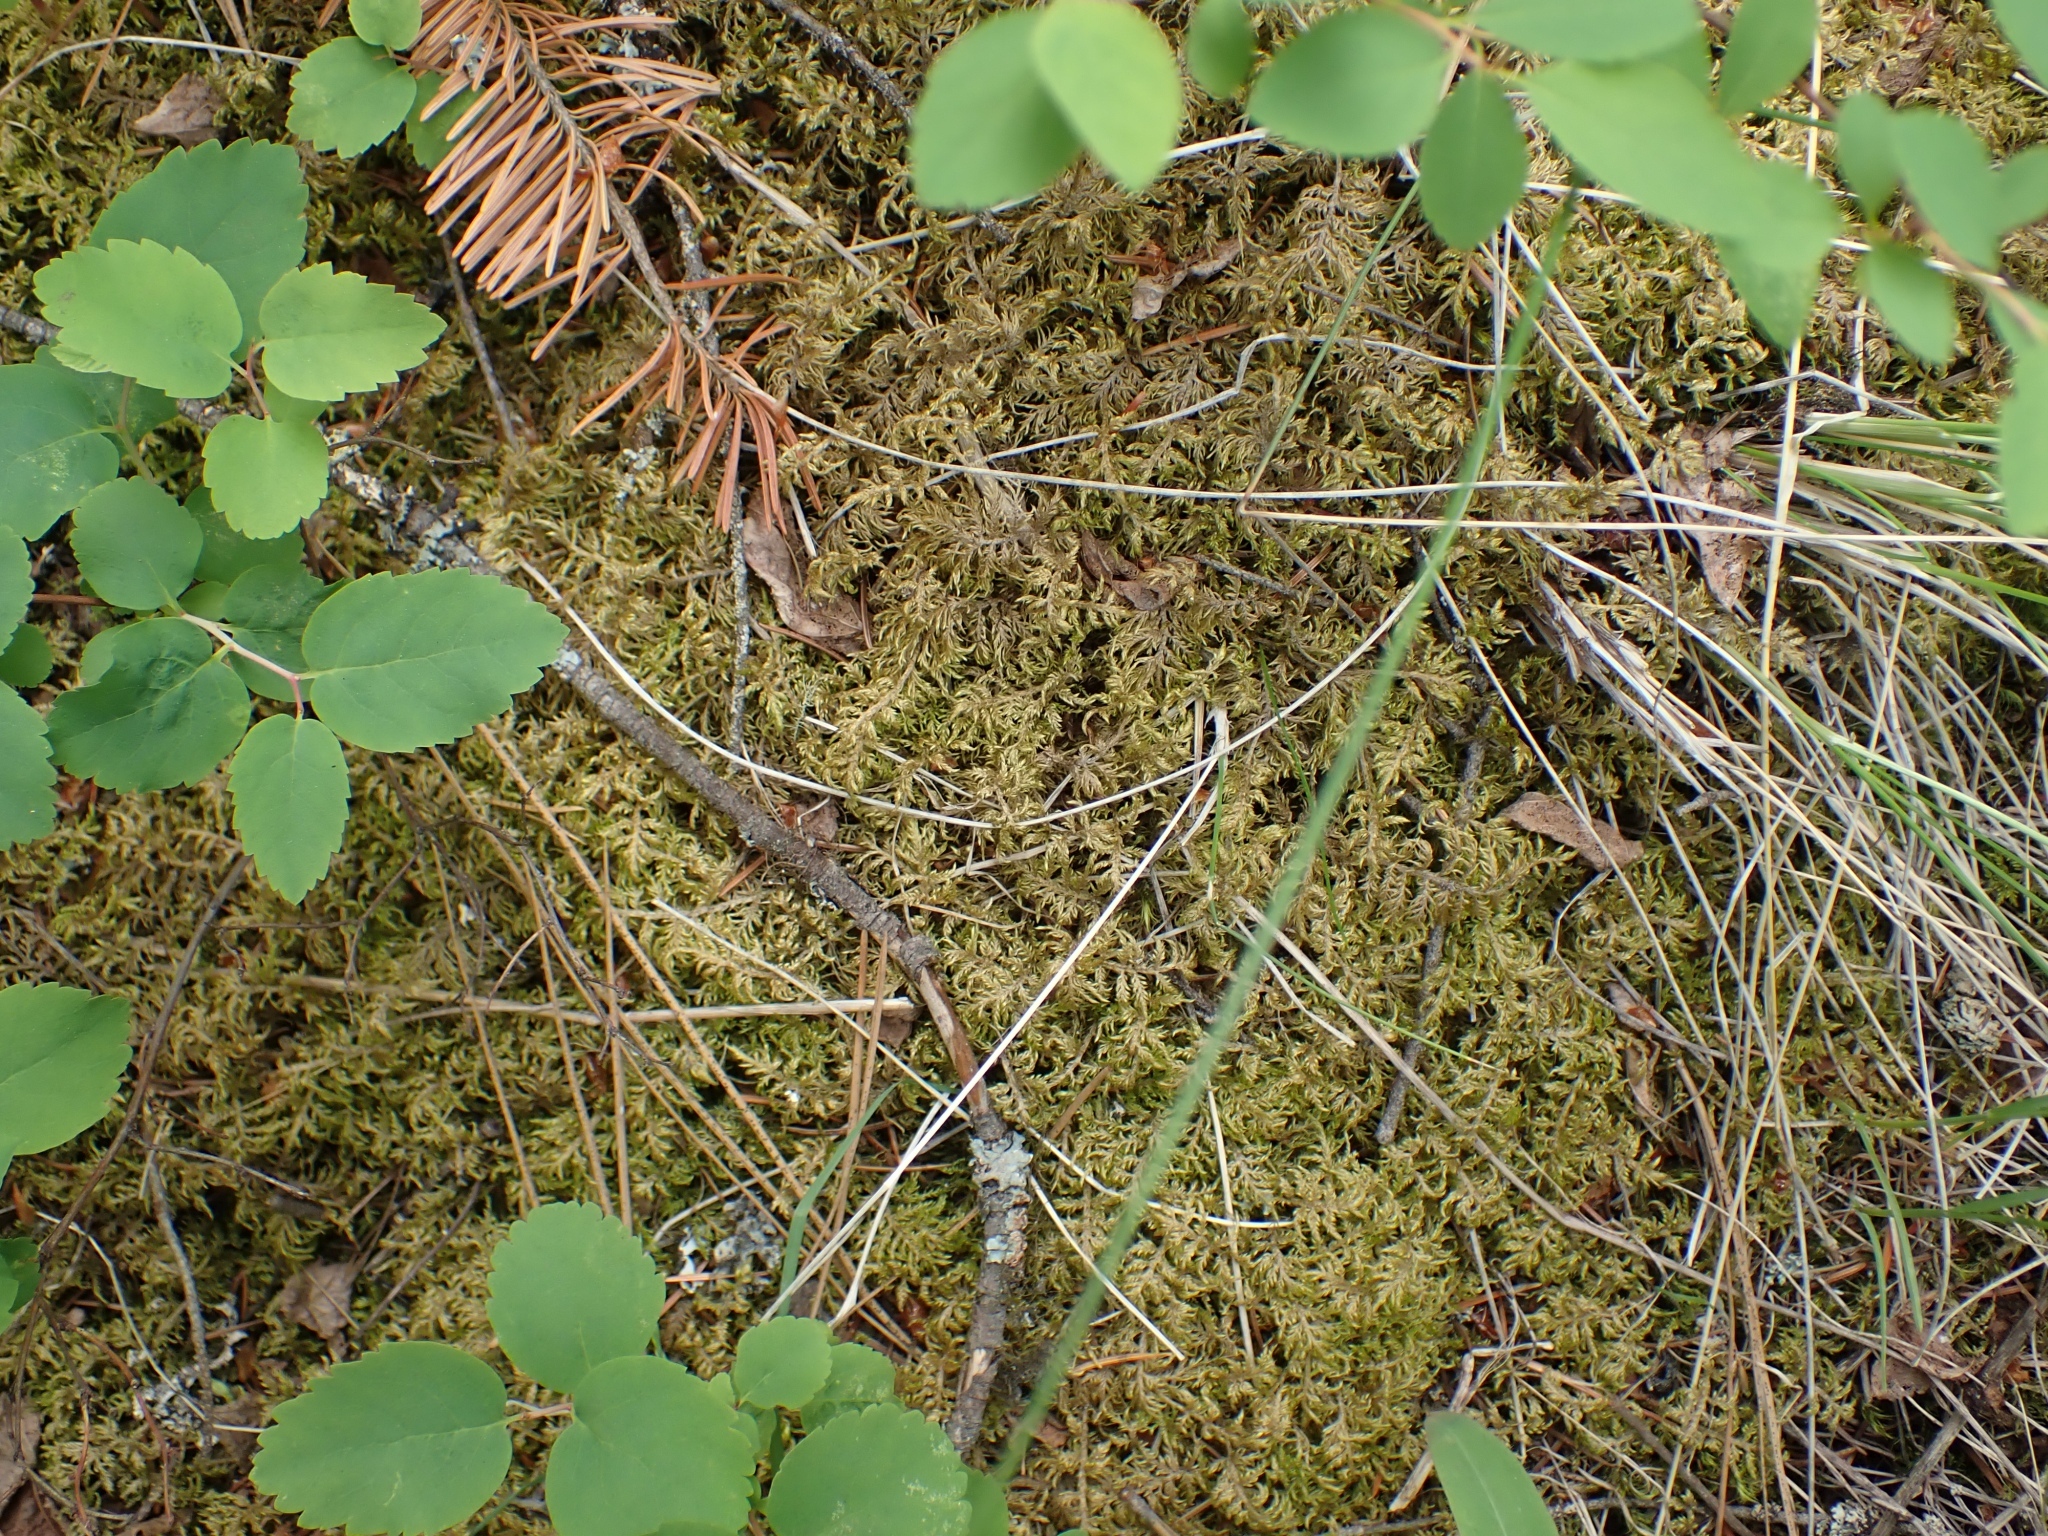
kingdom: Plantae
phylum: Bryophyta
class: Bryopsida
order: Hypnales
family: Hylocomiaceae
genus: Hylocomium
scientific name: Hylocomium splendens
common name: Stairstep moss
